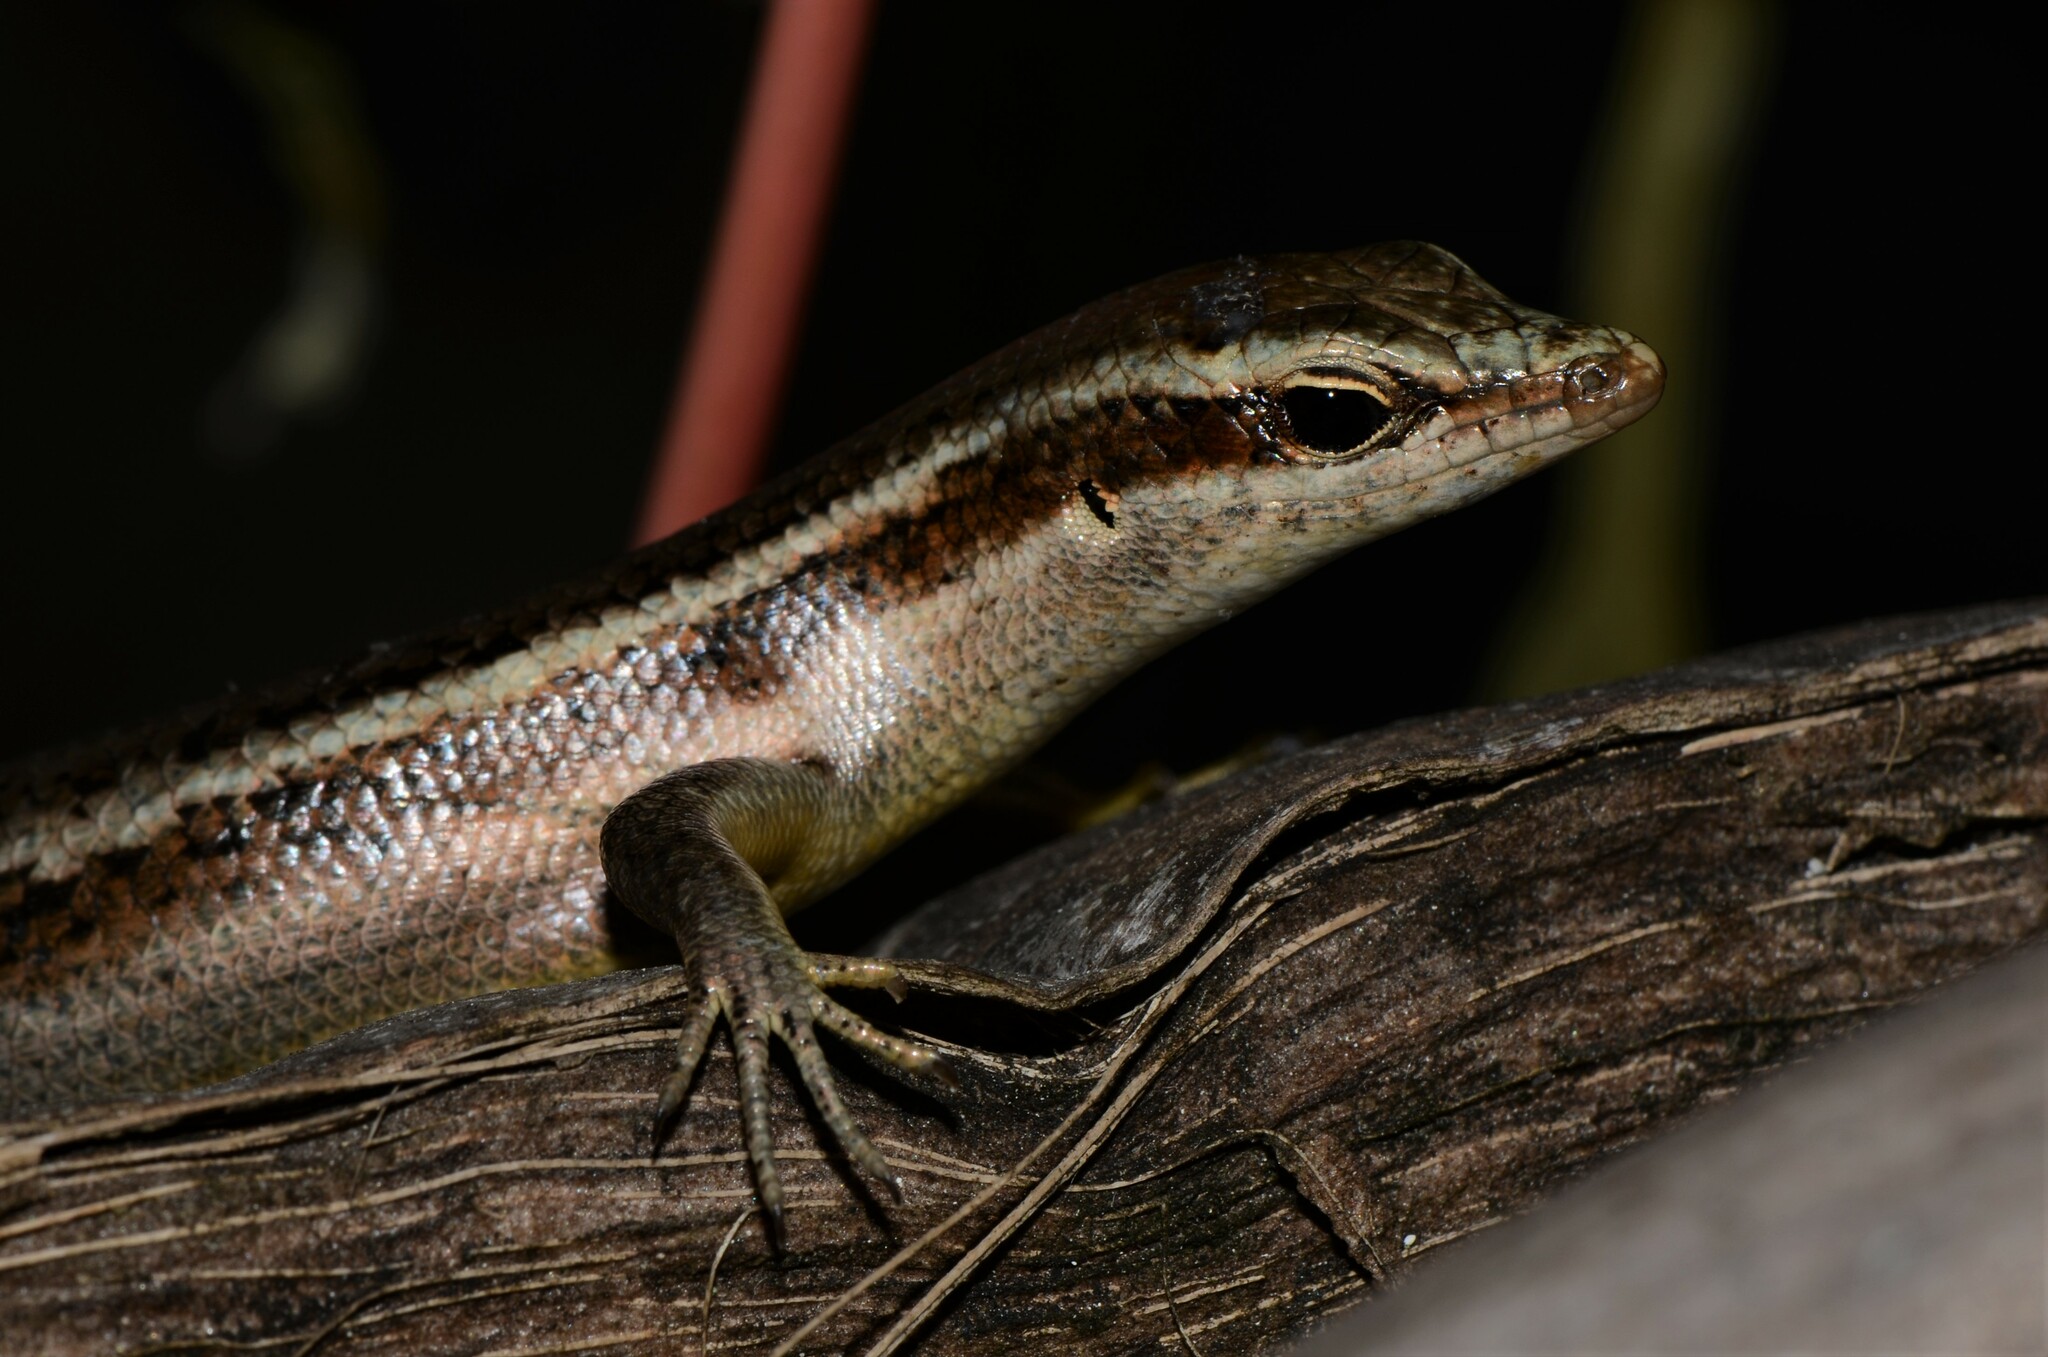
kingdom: Animalia
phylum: Chordata
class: Squamata
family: Scincidae
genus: Trachylepis
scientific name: Trachylepis sechellensis
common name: Seychelles skink
